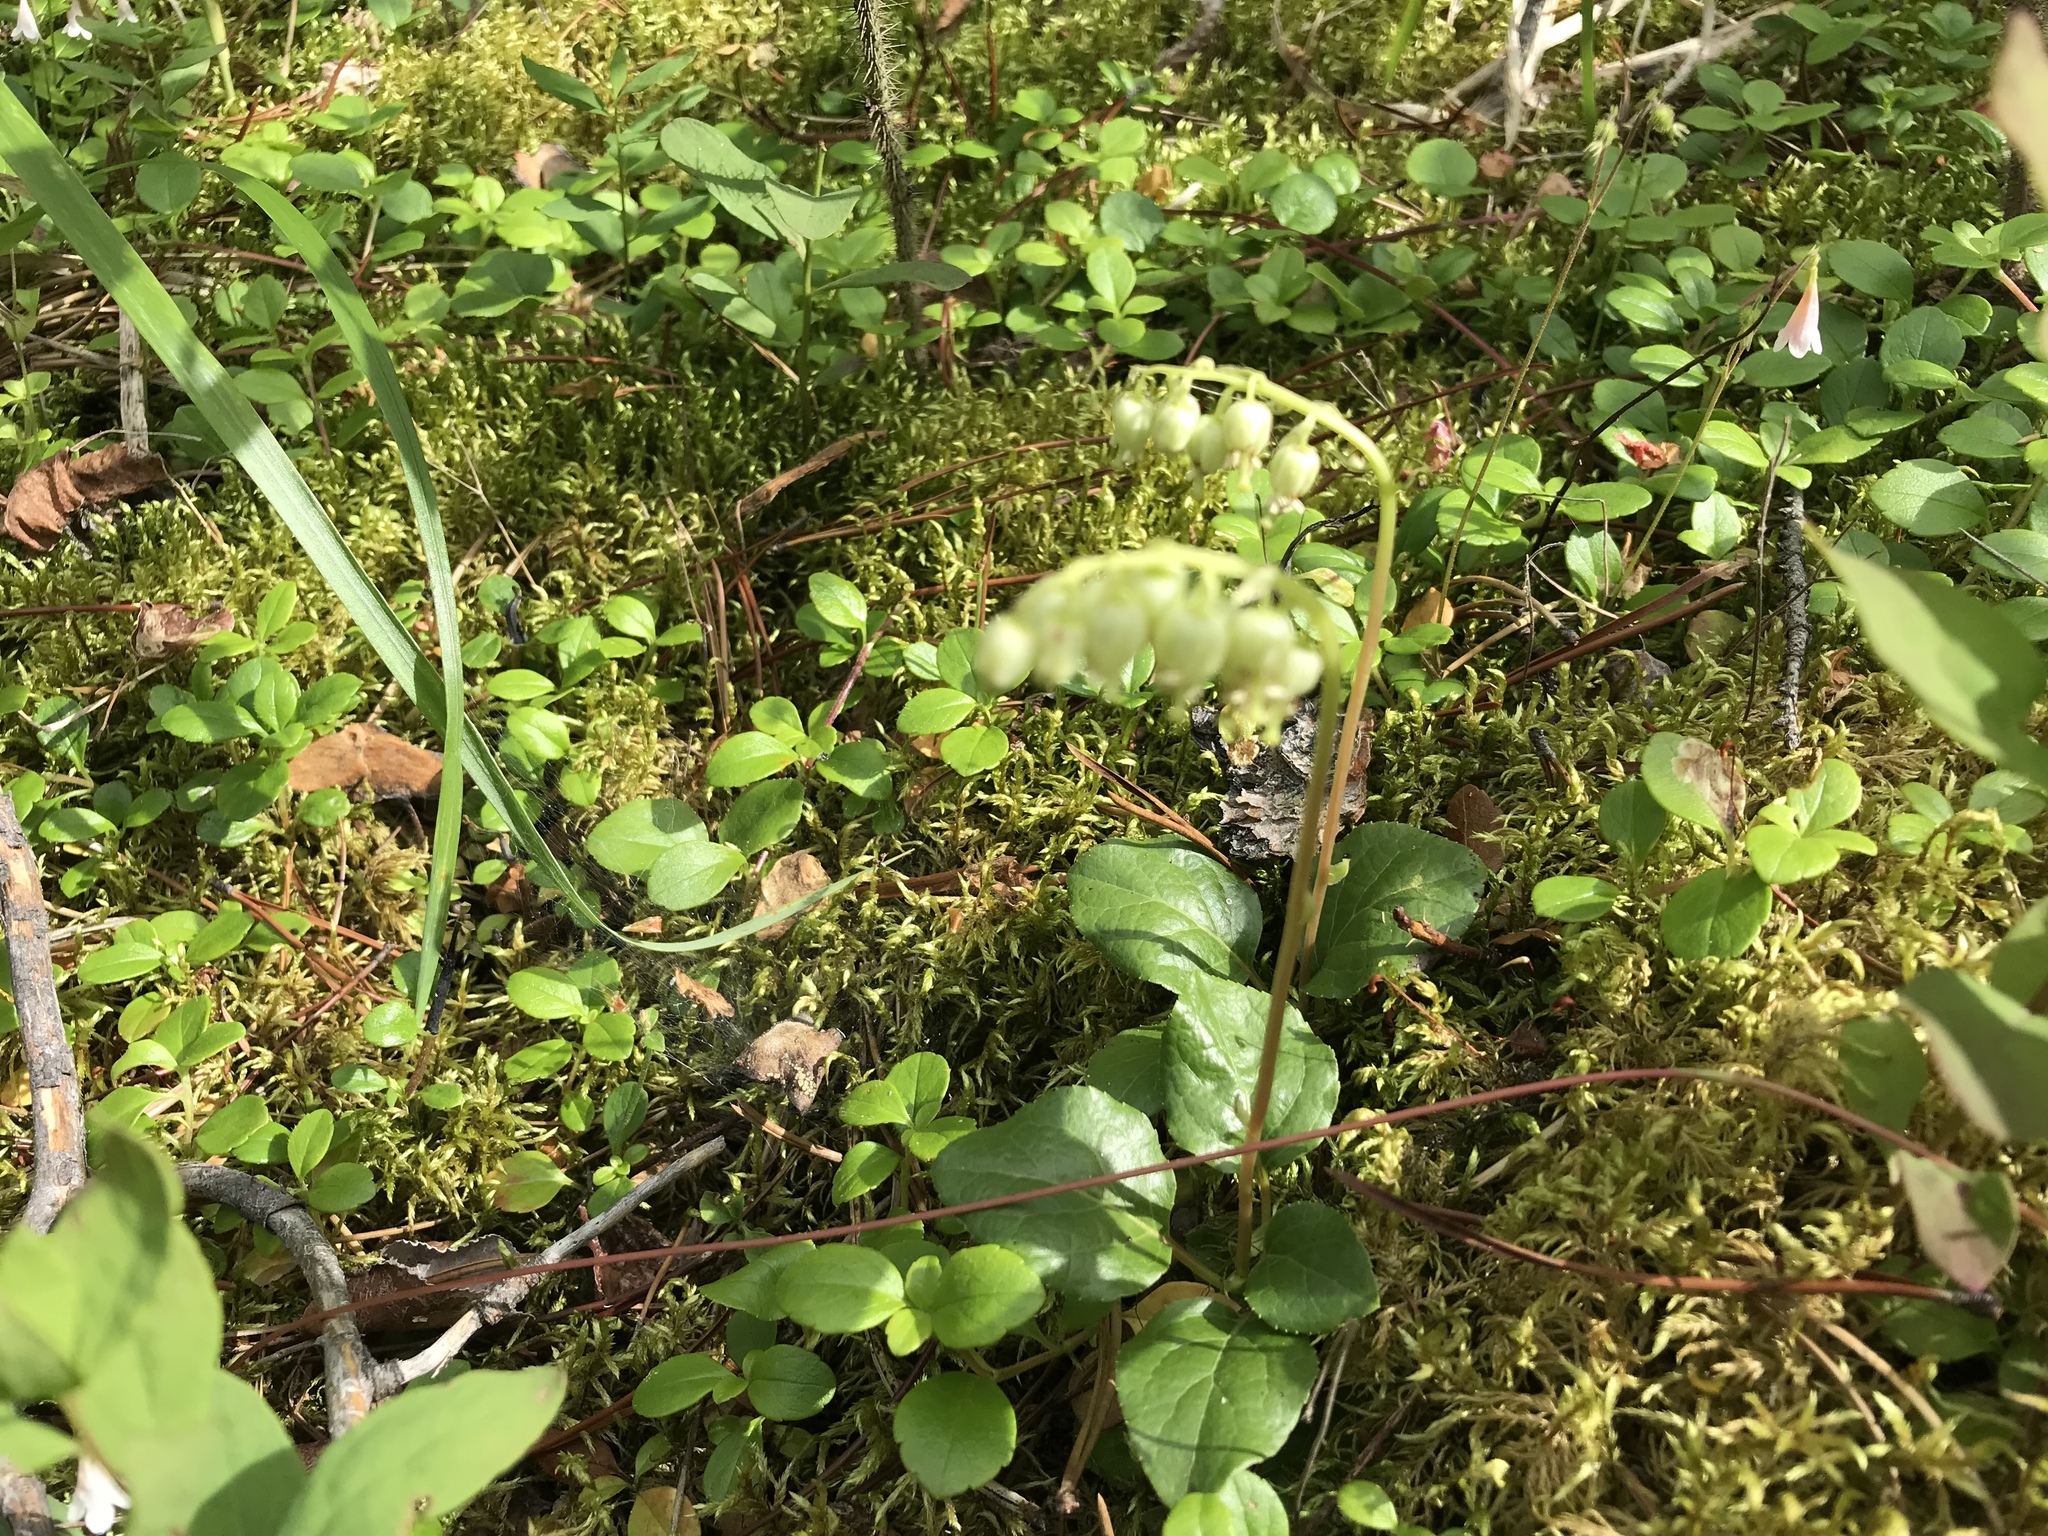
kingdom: Plantae
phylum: Tracheophyta
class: Magnoliopsida
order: Ericales
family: Ericaceae
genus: Orthilia
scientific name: Orthilia secunda
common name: One-sided orthilia
